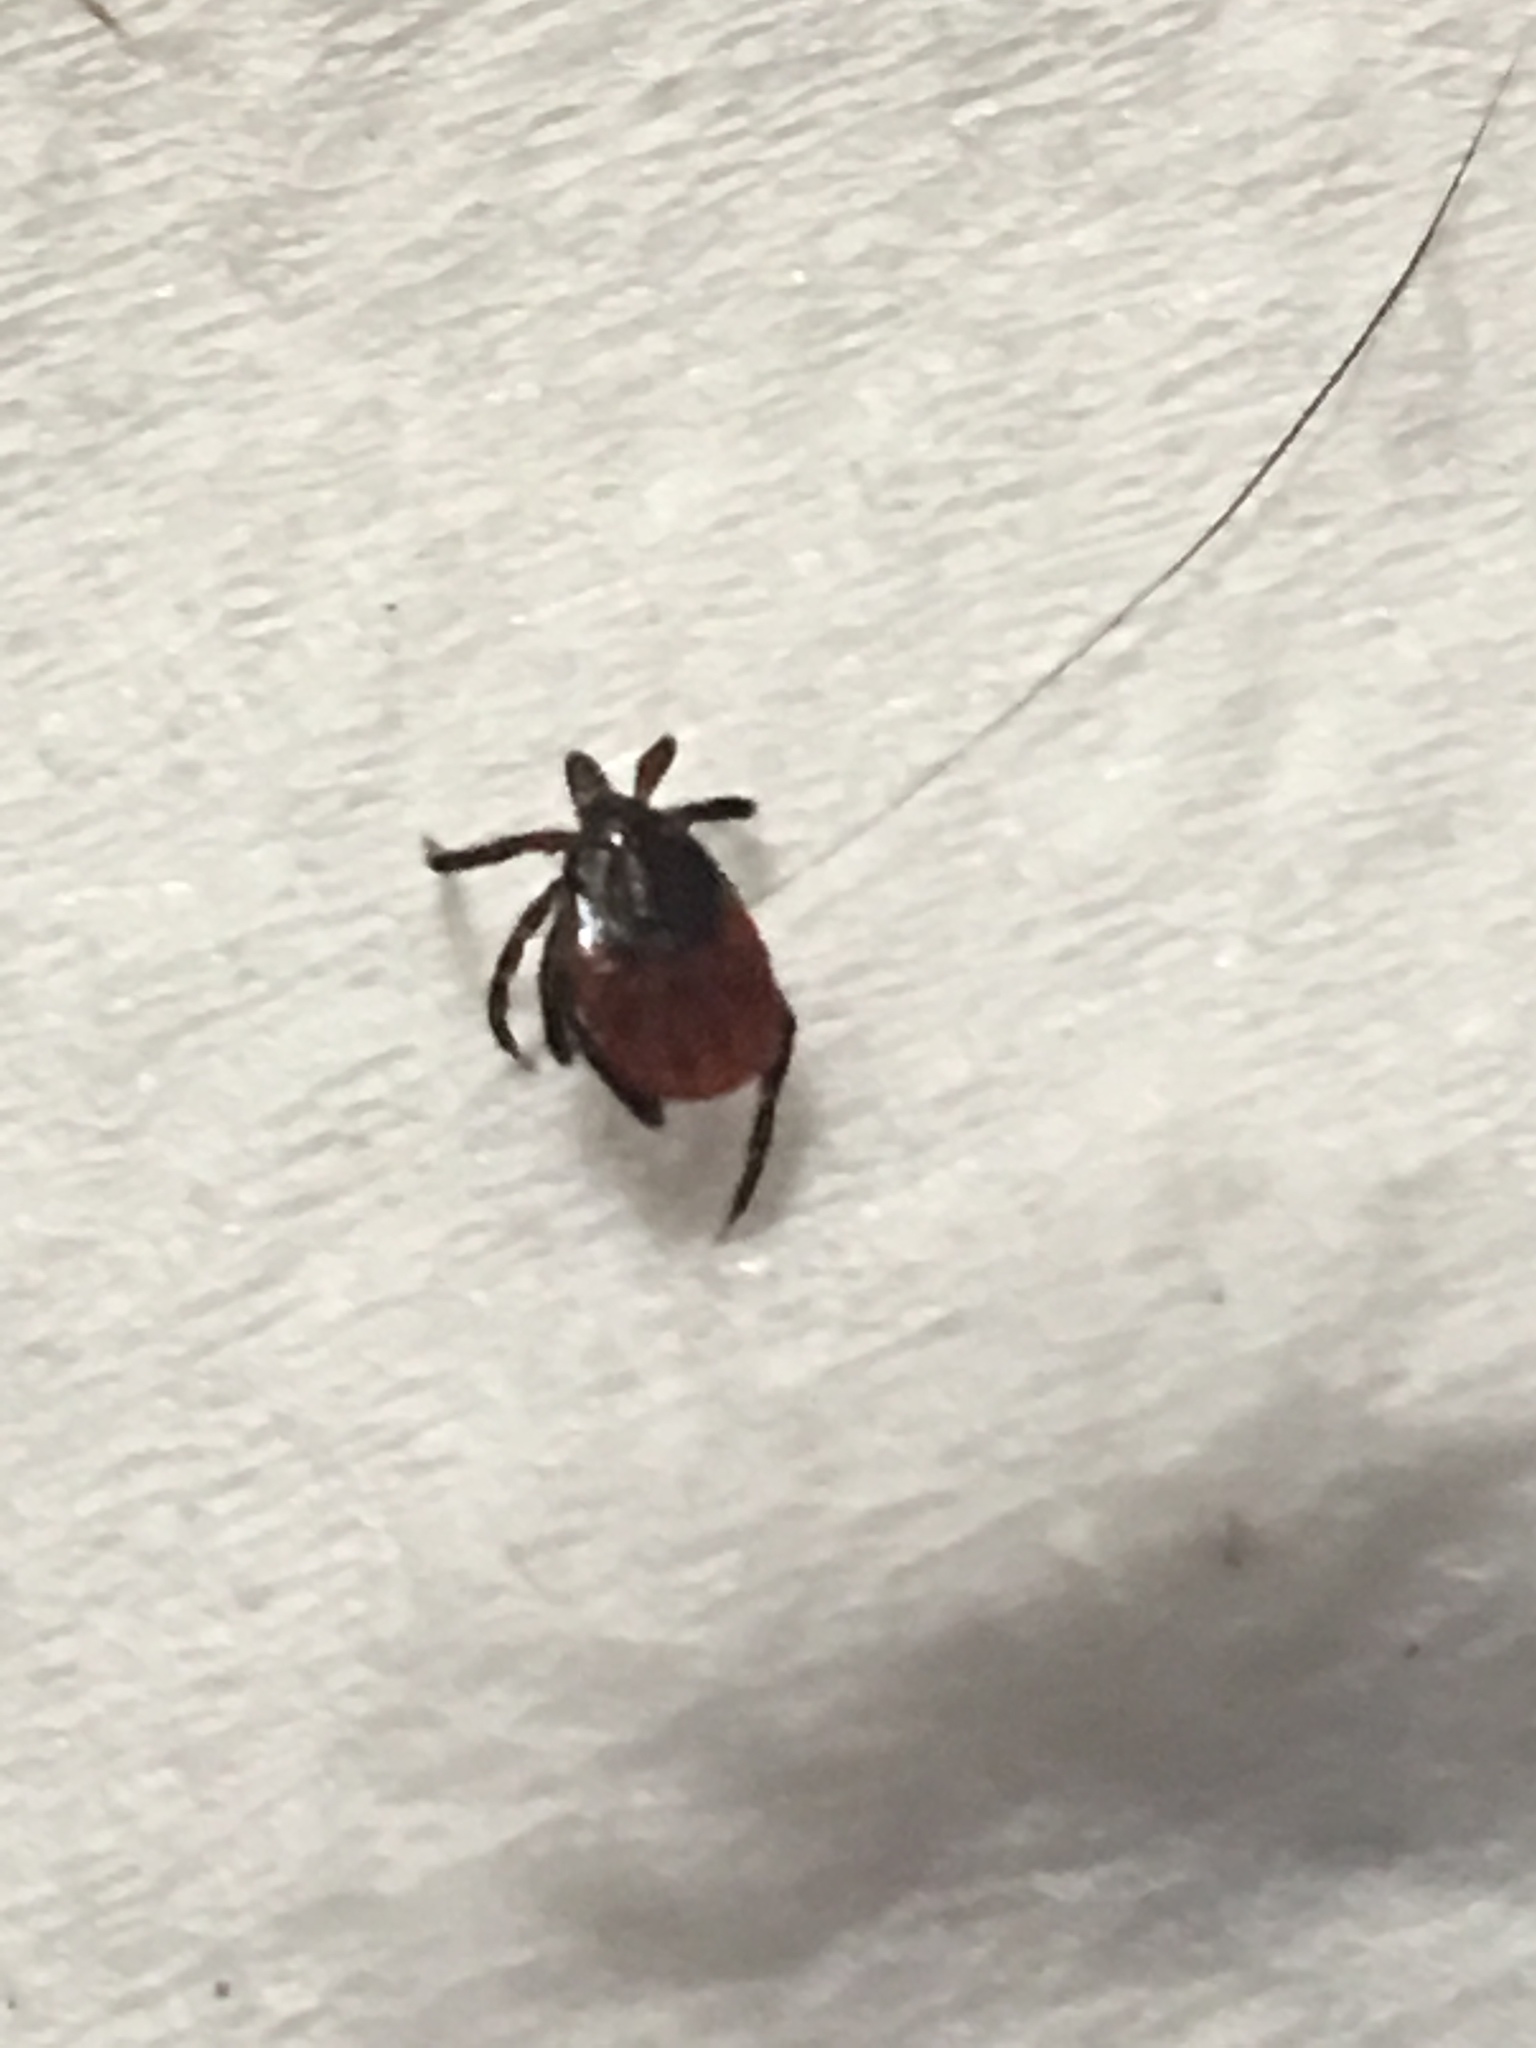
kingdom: Animalia
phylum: Arthropoda
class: Arachnida
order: Ixodida
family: Ixodidae
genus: Ixodes
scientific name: Ixodes scapularis
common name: Black legged tick
